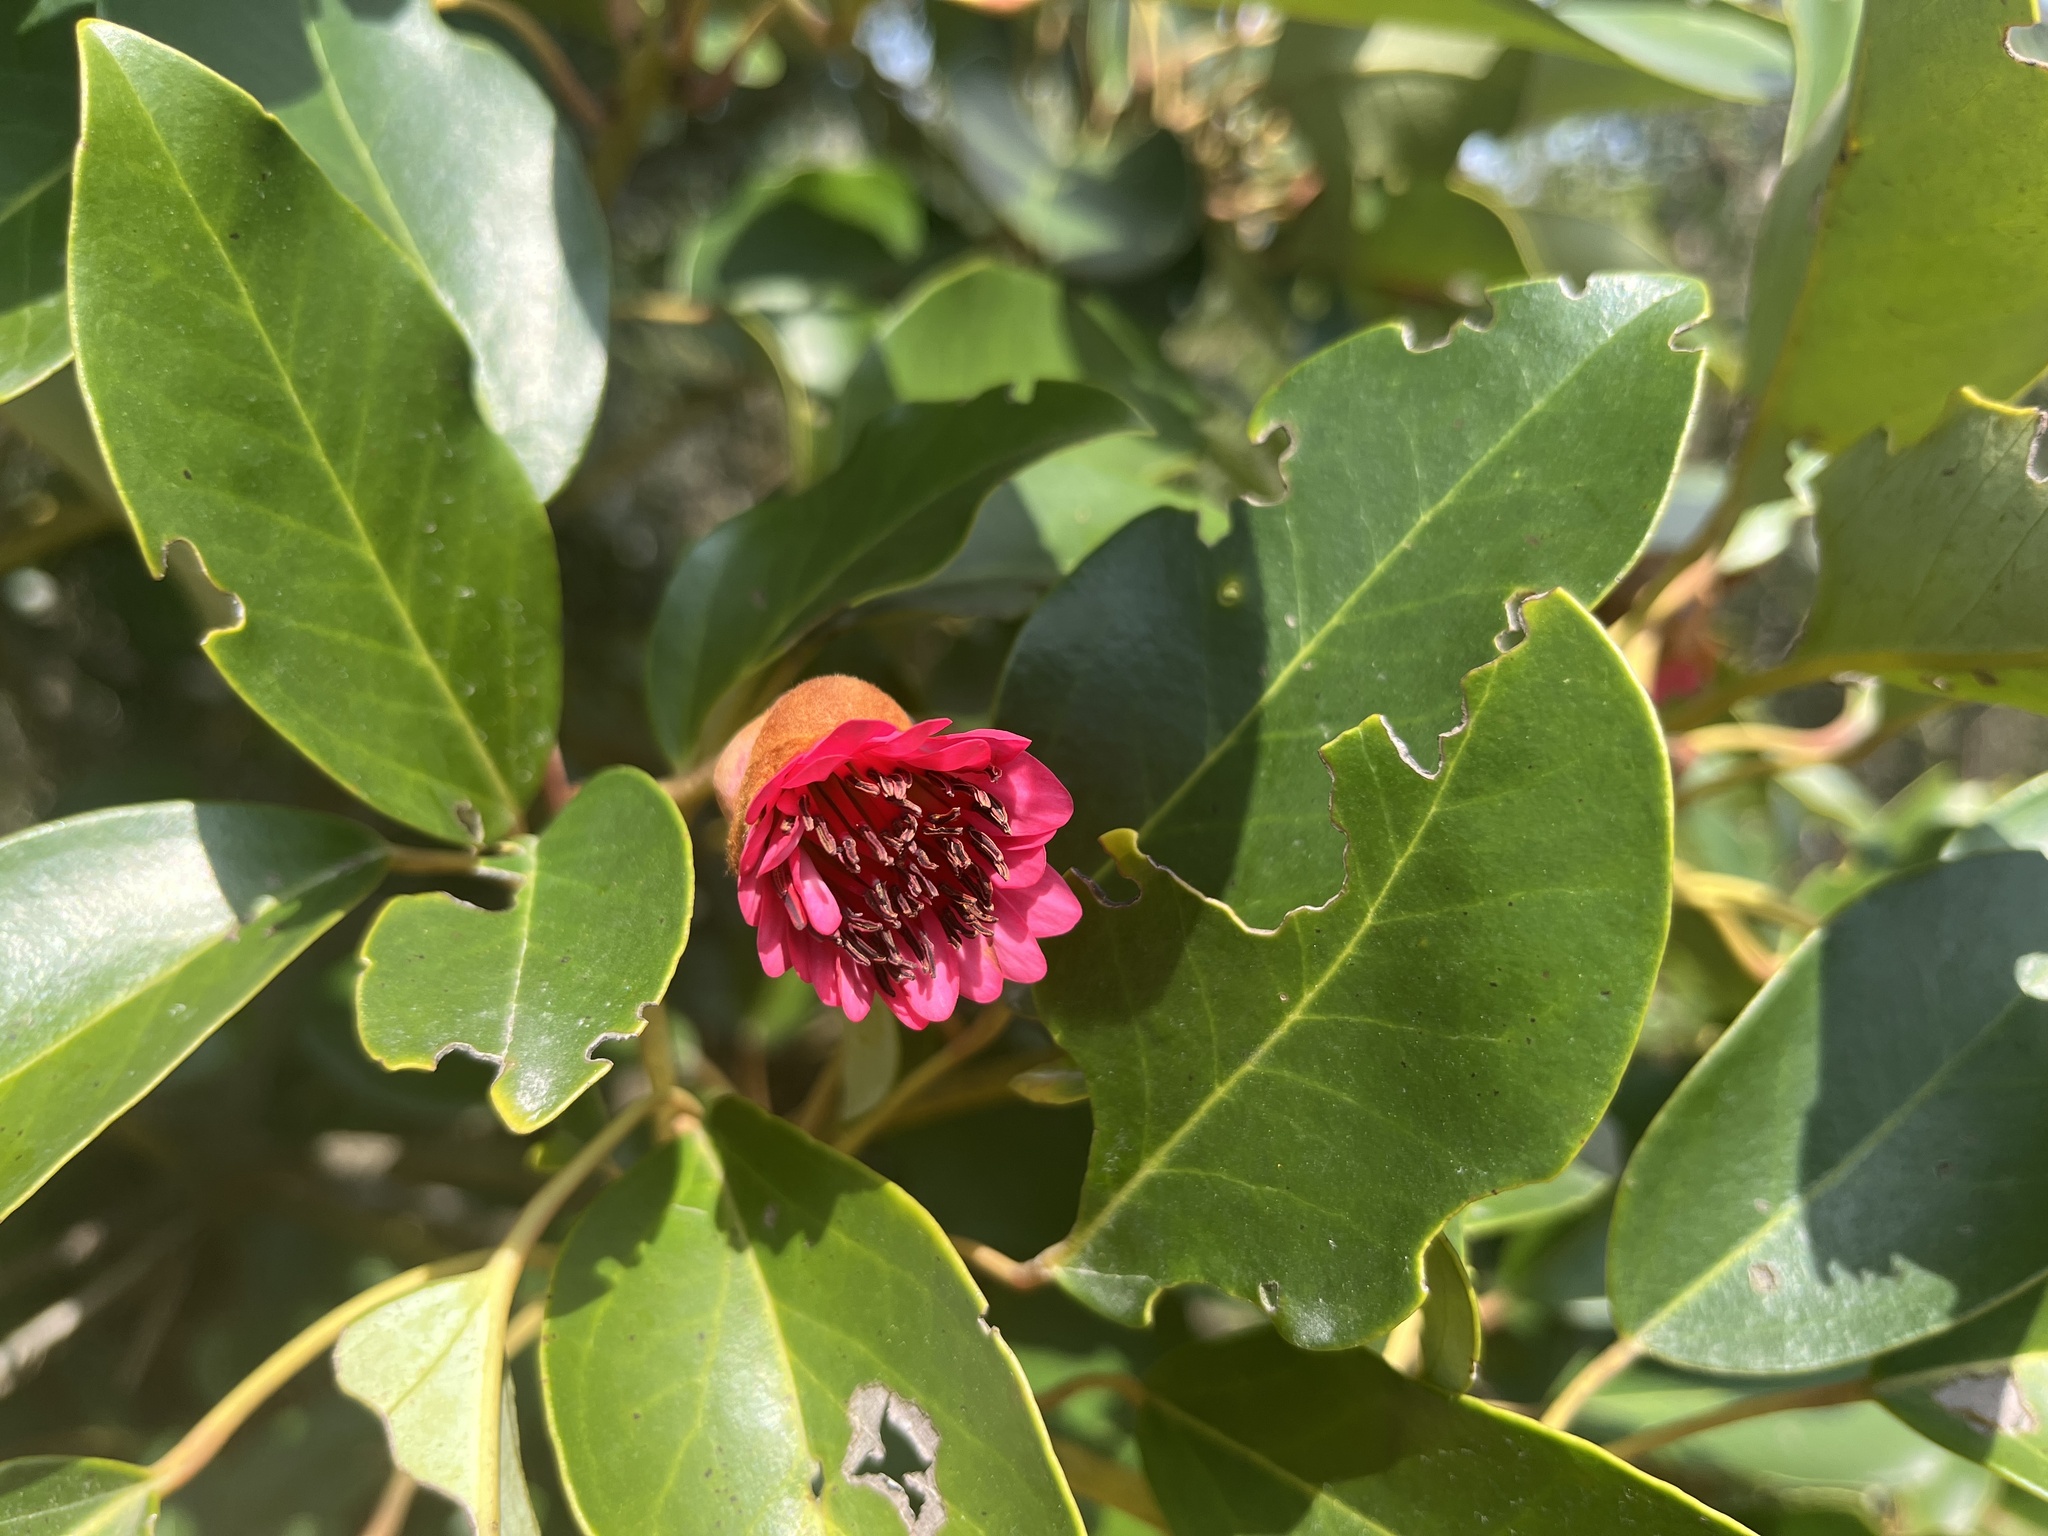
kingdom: Plantae
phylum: Tracheophyta
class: Magnoliopsida
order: Saxifragales
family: Hamamelidaceae
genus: Rhodoleia
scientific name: Rhodoleia championii
